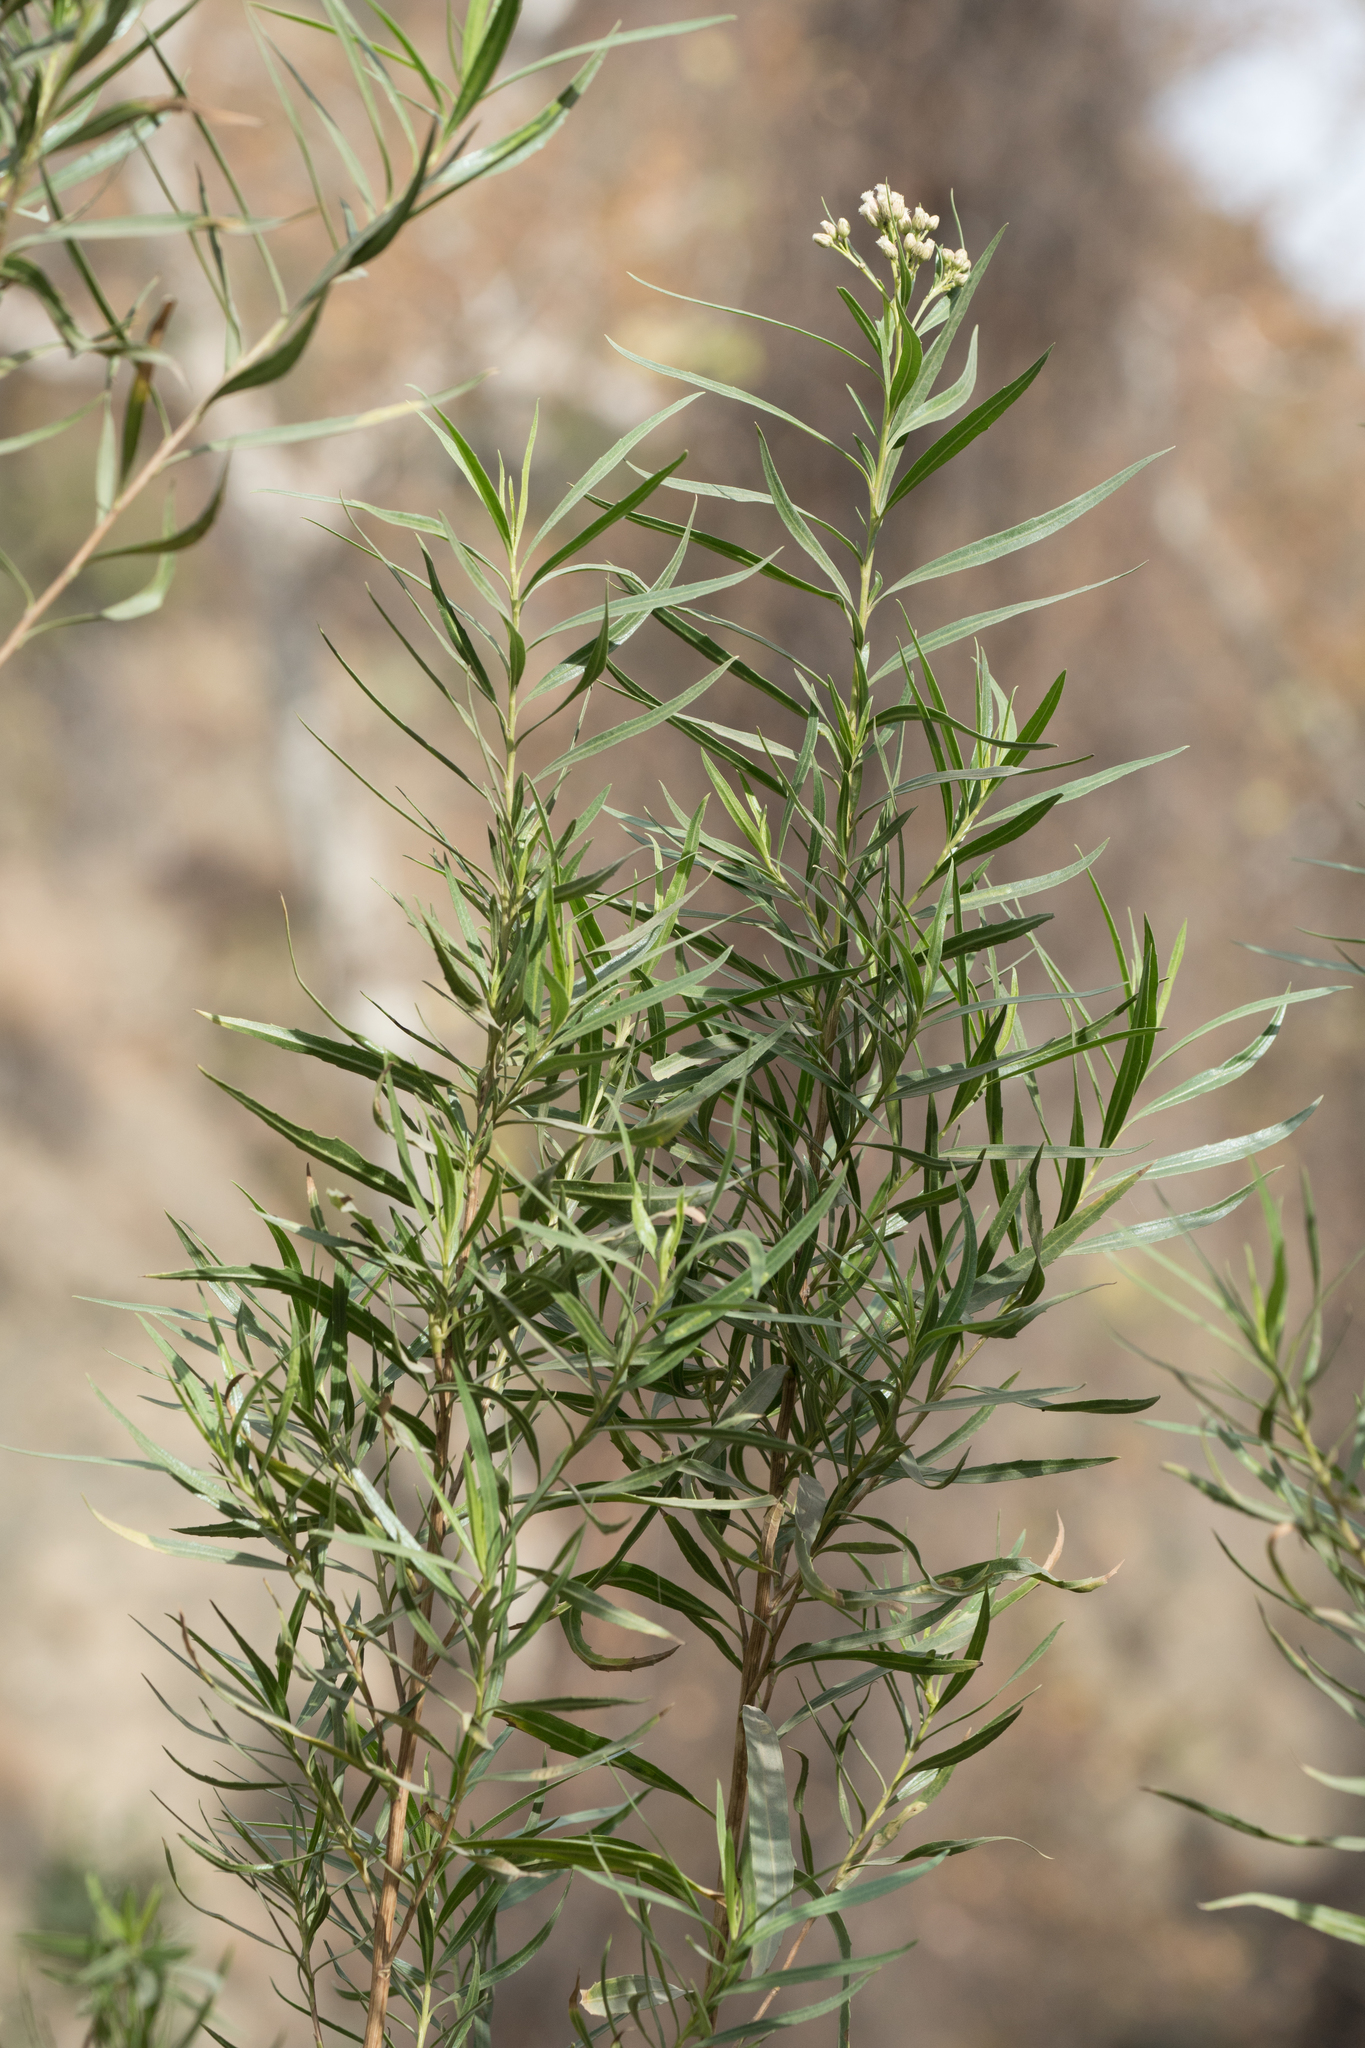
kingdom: Plantae
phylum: Tracheophyta
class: Magnoliopsida
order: Asterales
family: Asteraceae
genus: Baccharis
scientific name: Baccharis salicifolia
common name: Sticky baccharis
